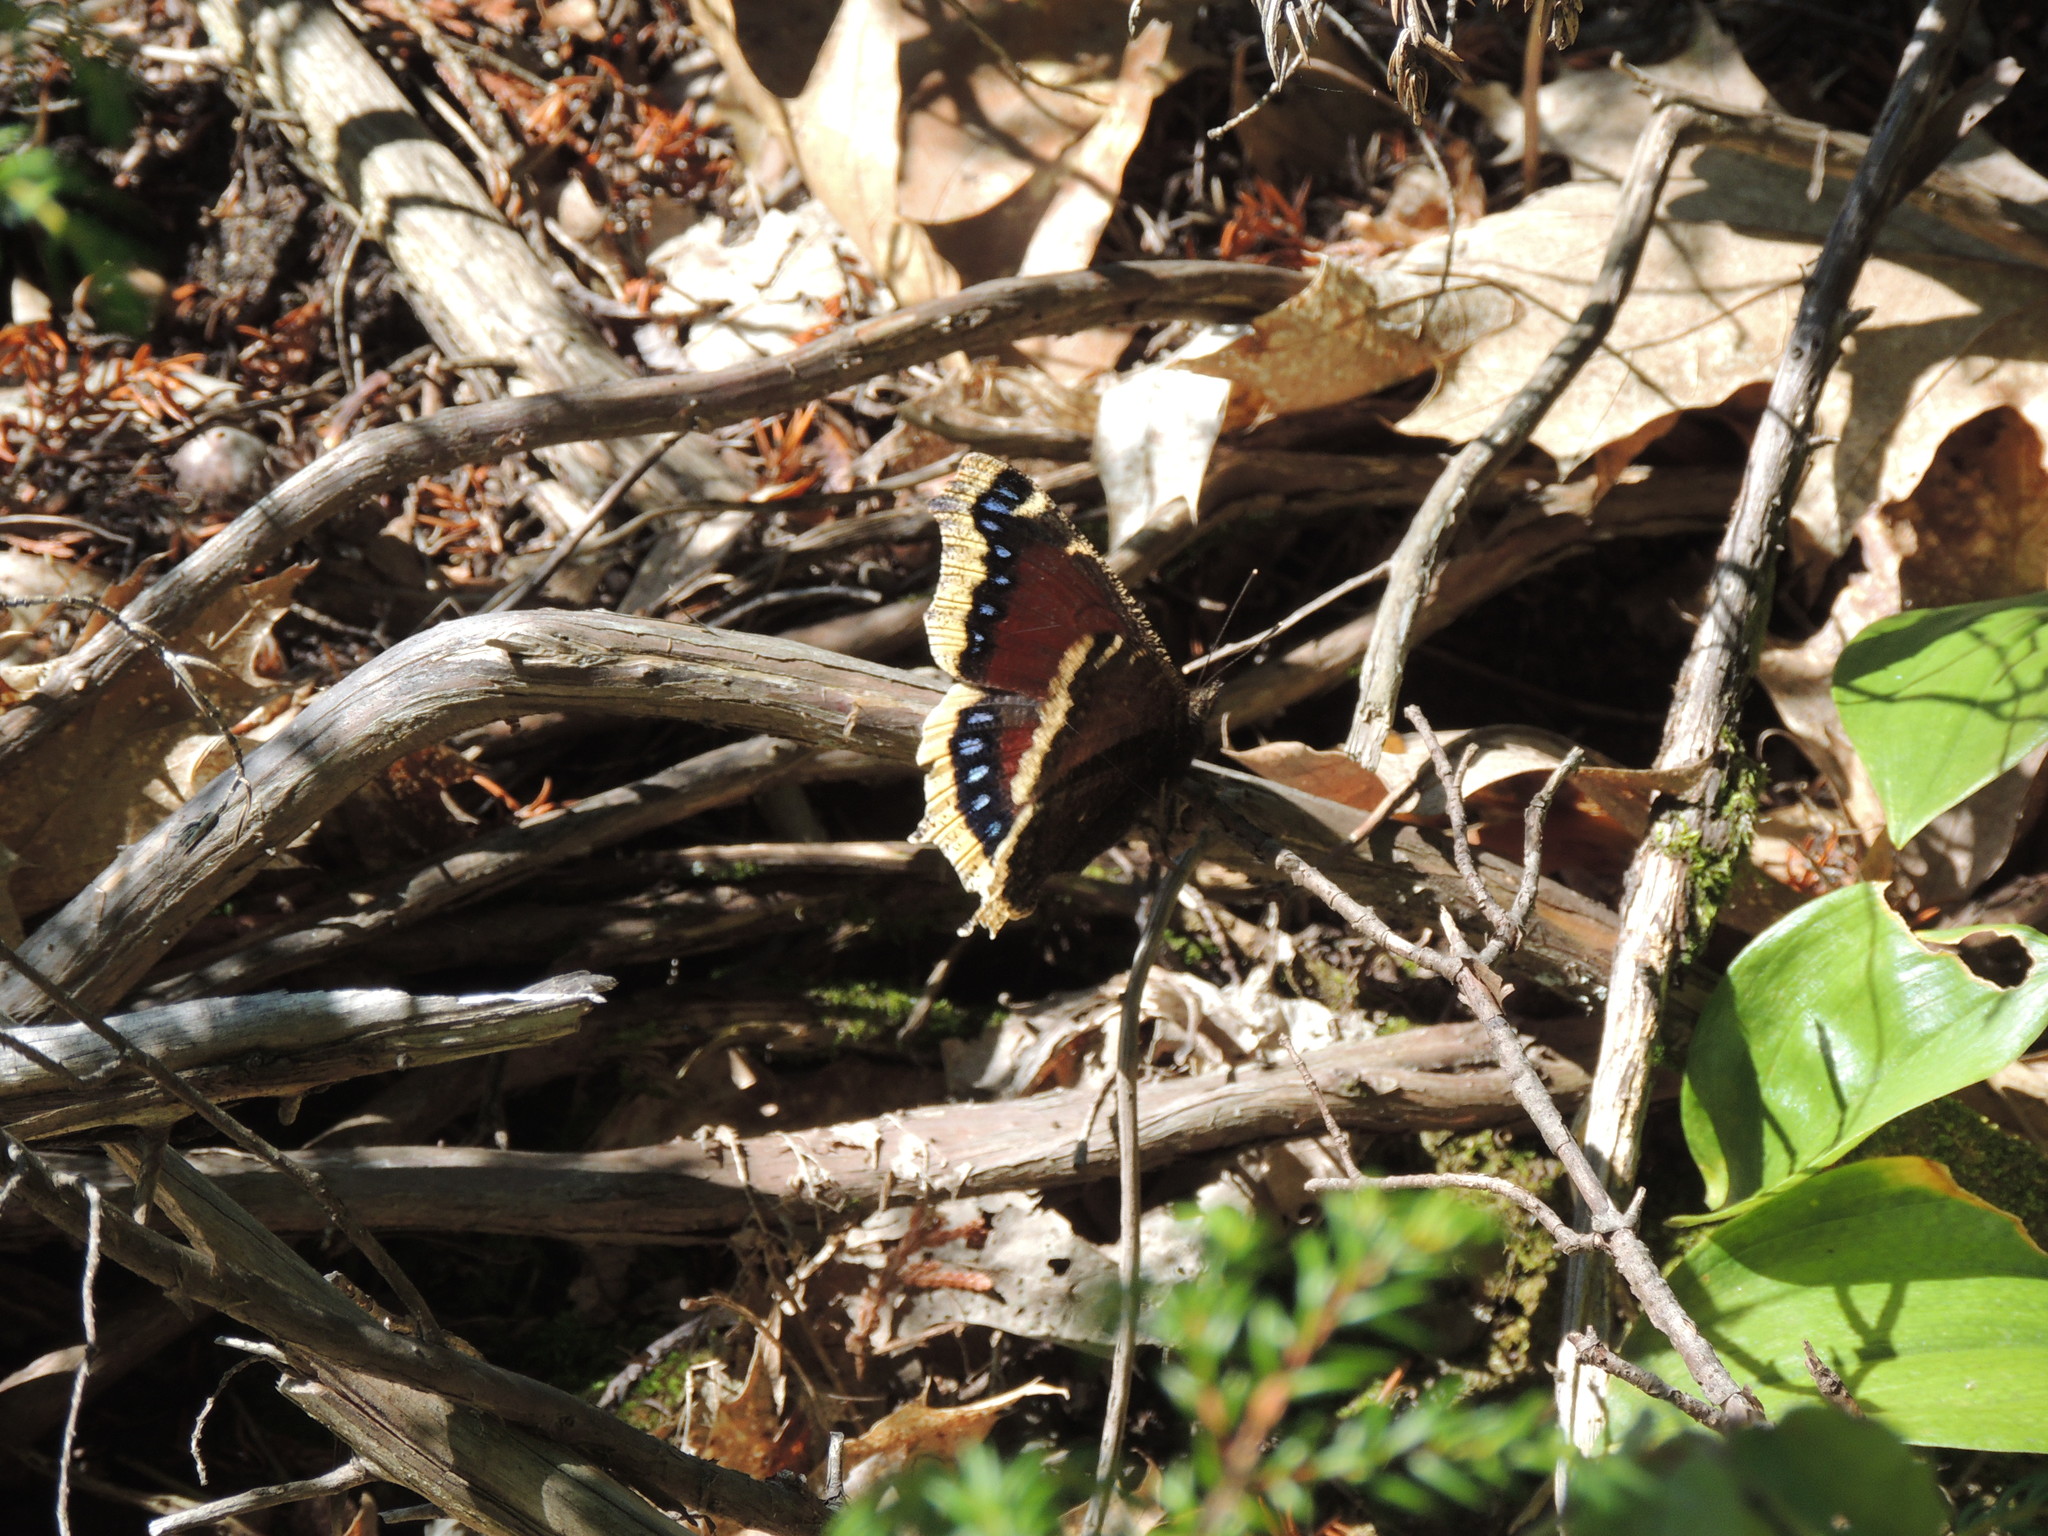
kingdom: Animalia
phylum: Arthropoda
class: Insecta
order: Lepidoptera
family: Nymphalidae
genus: Nymphalis
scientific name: Nymphalis antiopa
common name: Camberwell beauty
